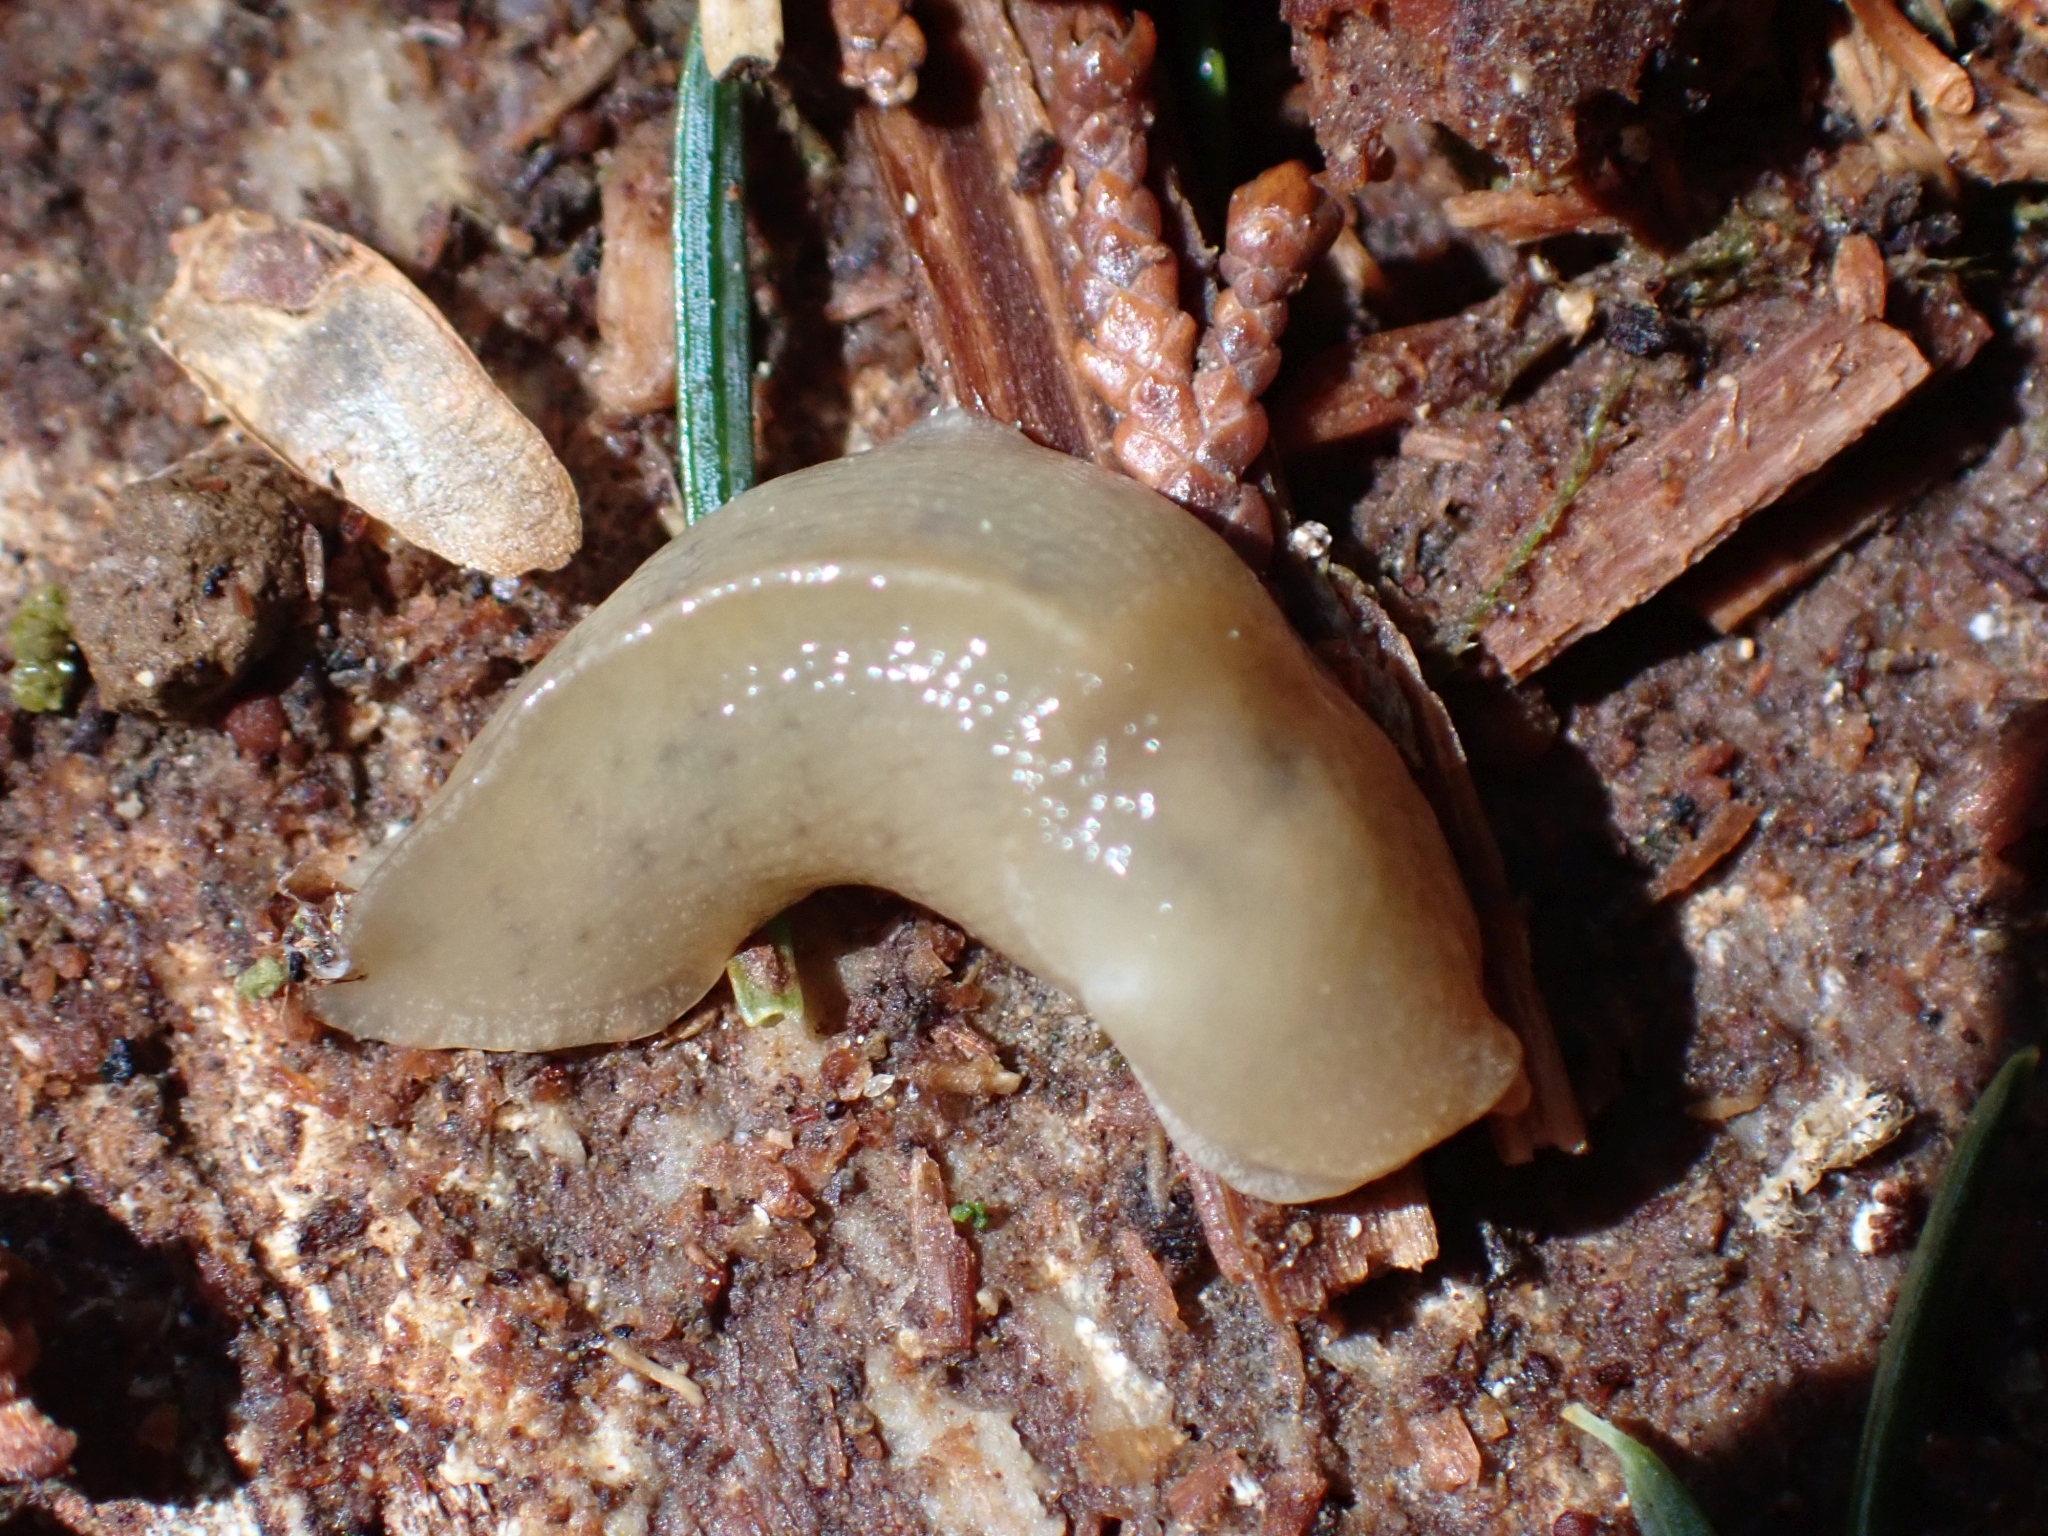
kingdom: Animalia
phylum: Mollusca
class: Gastropoda
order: Stylommatophora
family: Ariolimacidae
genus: Ariolimax
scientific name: Ariolimax columbianus
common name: Pacific banana slug
